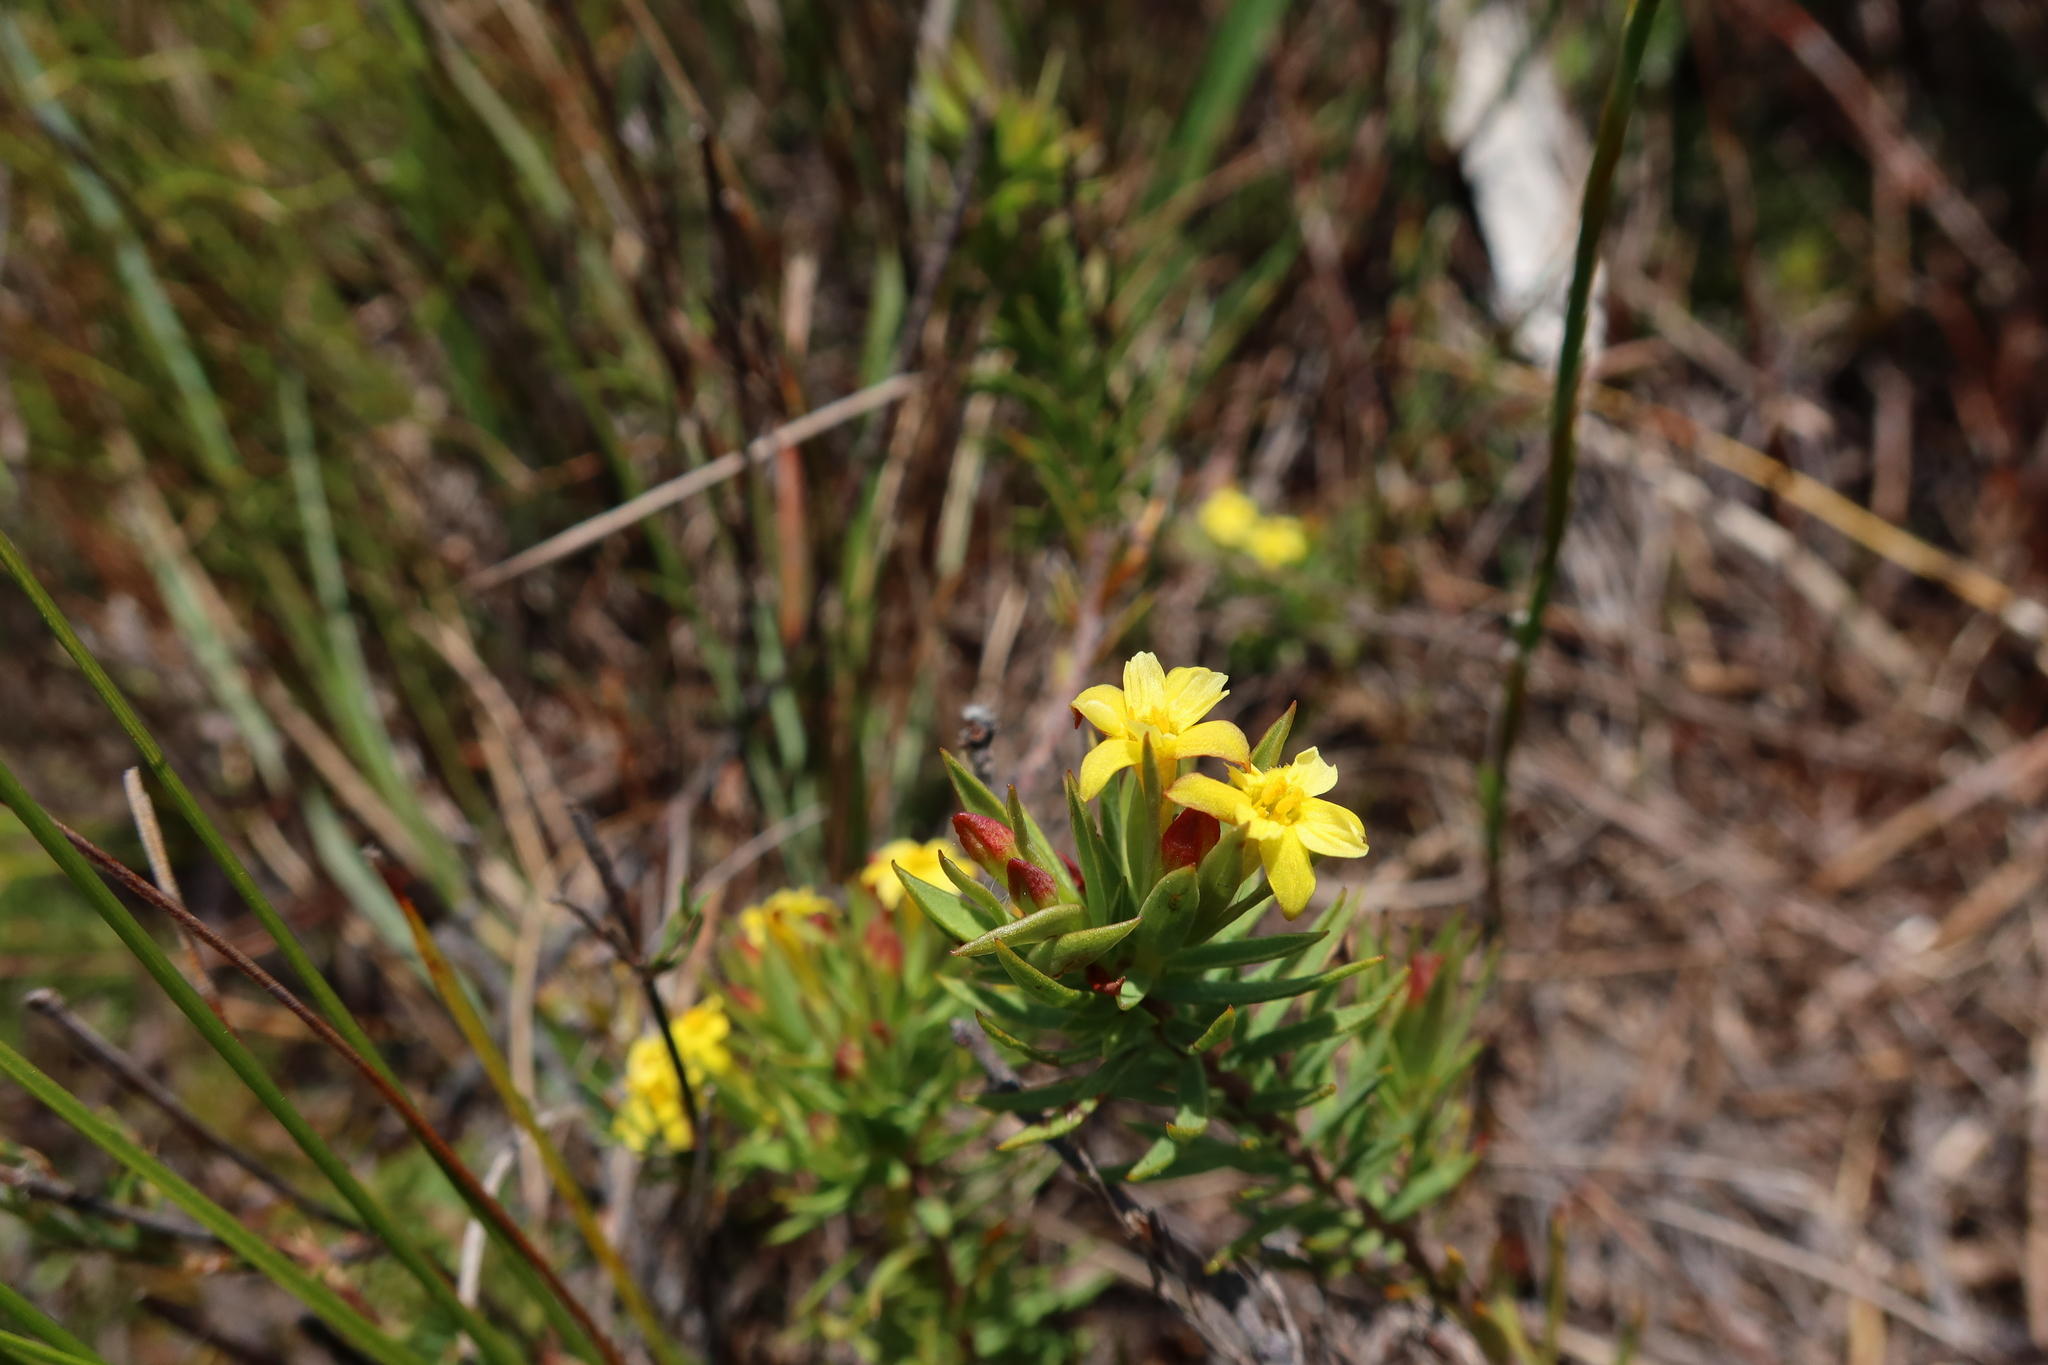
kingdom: Plantae
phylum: Tracheophyta
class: Magnoliopsida
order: Malvales
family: Thymelaeaceae
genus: Gnidia
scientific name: Gnidia juniperifolia
